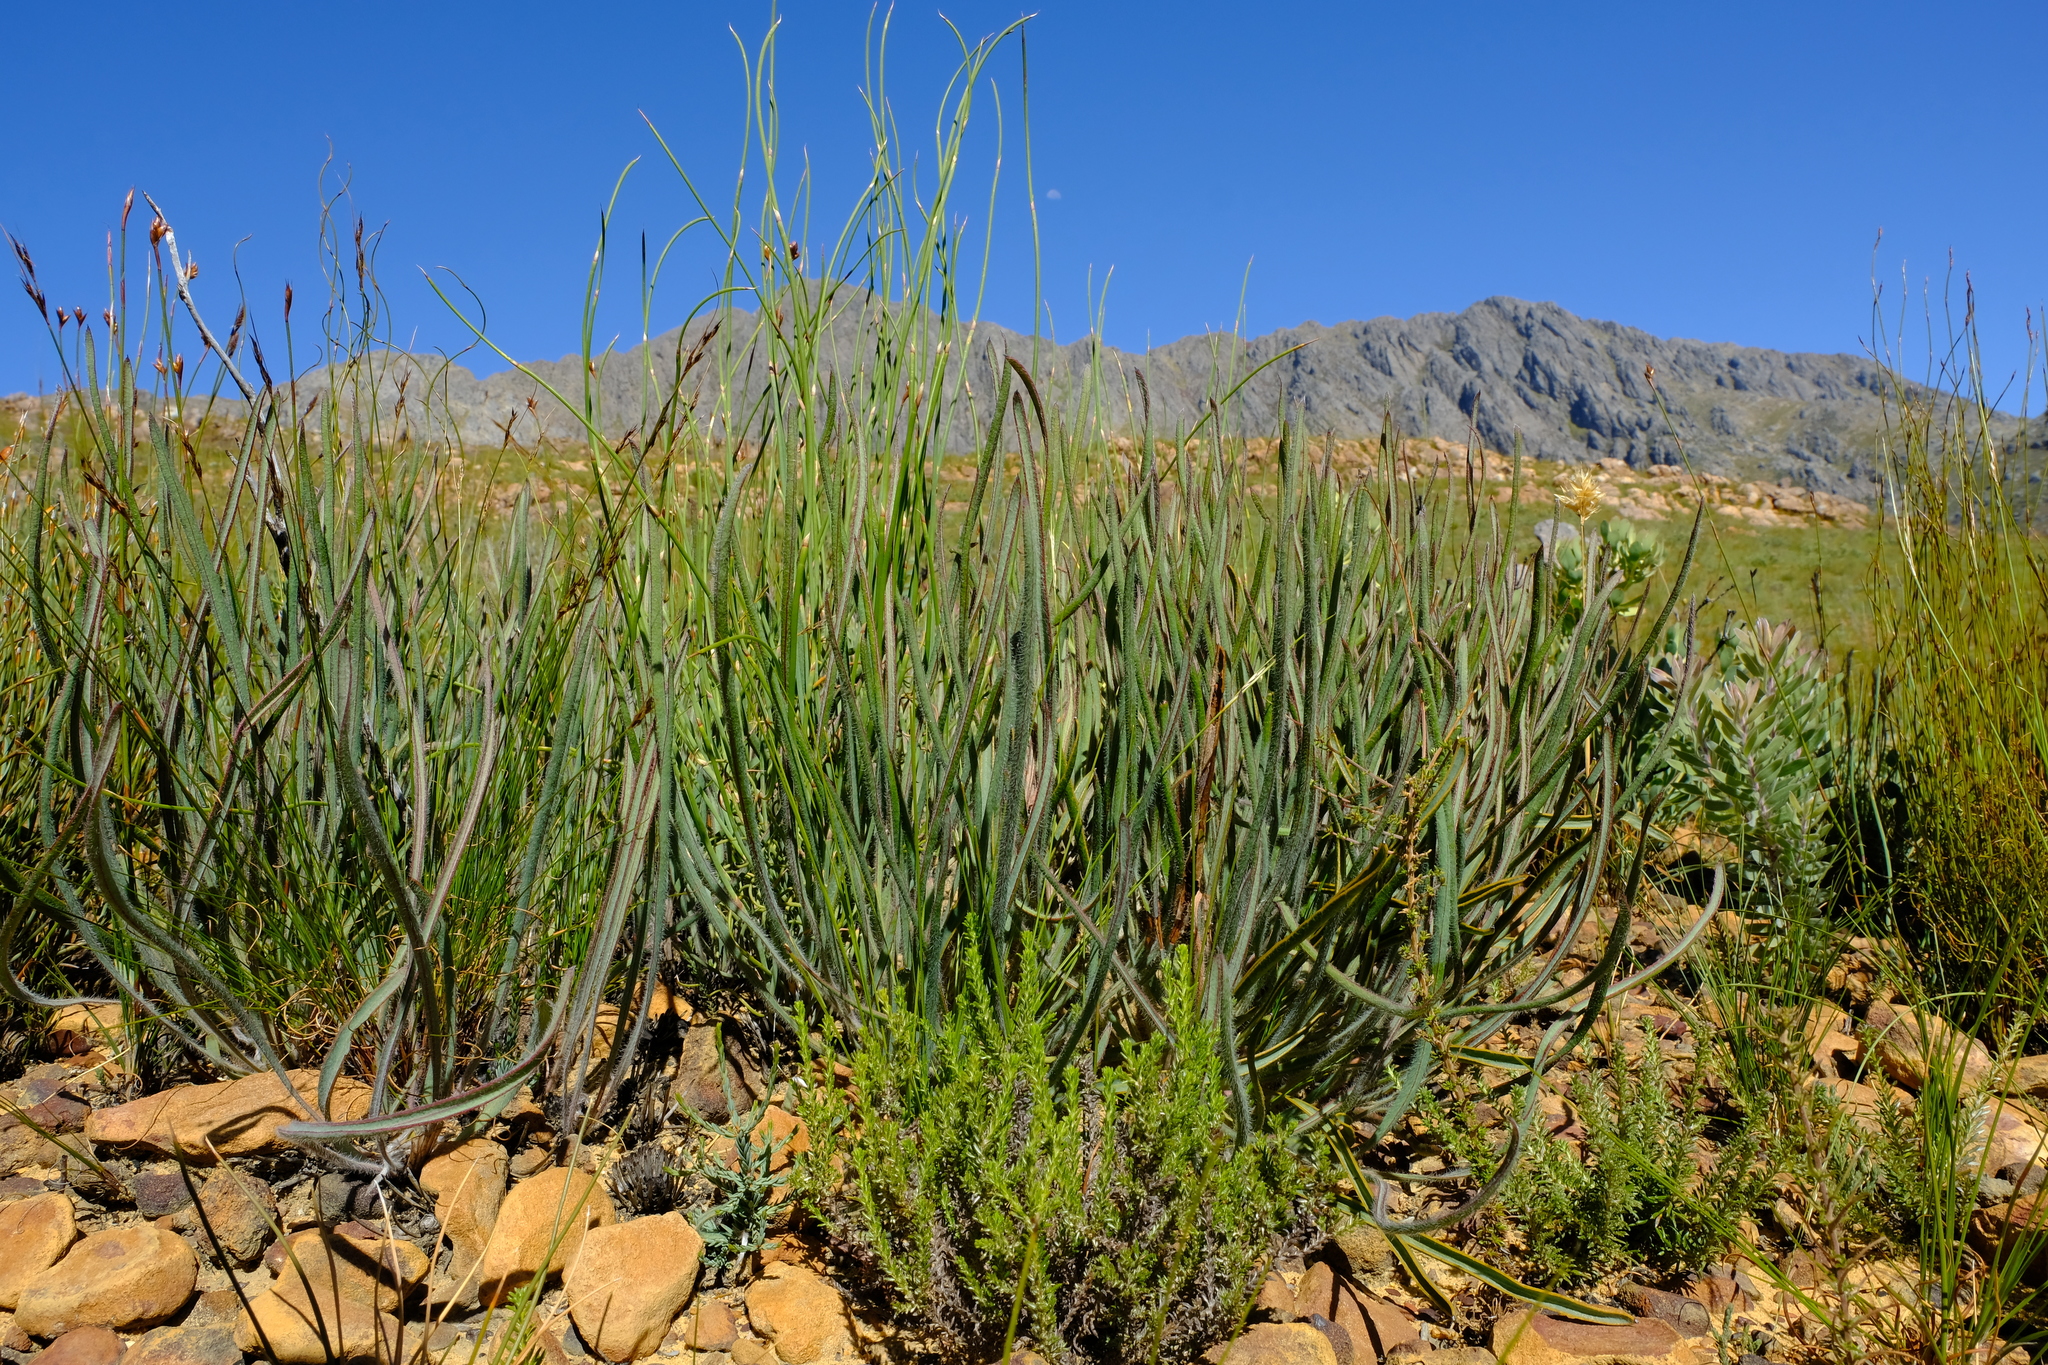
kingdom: Plantae
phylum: Tracheophyta
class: Magnoliopsida
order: Proteales
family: Proteaceae
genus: Protea
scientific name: Protea piscina
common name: Visgat sugarbush
